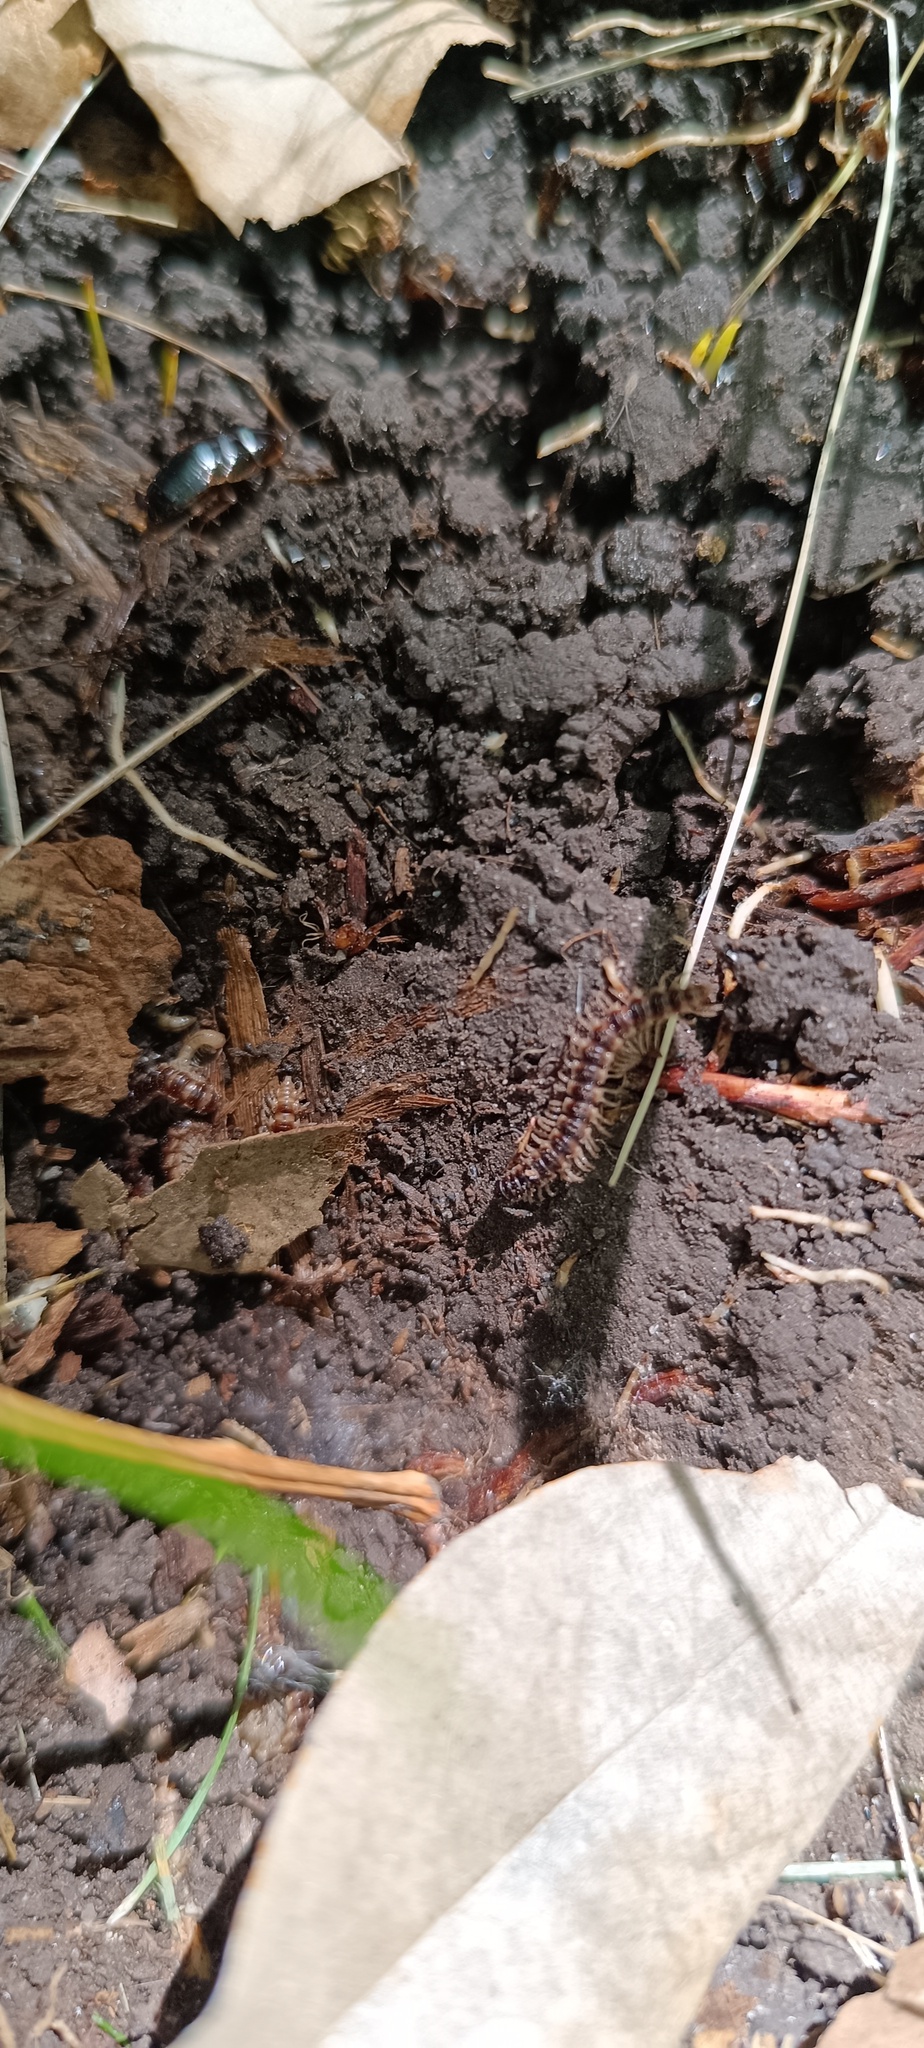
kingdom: Animalia
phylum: Arthropoda
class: Diplopoda
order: Polydesmida
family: Paradoxosomatidae
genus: Oxidus
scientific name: Oxidus gracilis
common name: Greenhouse millipede
